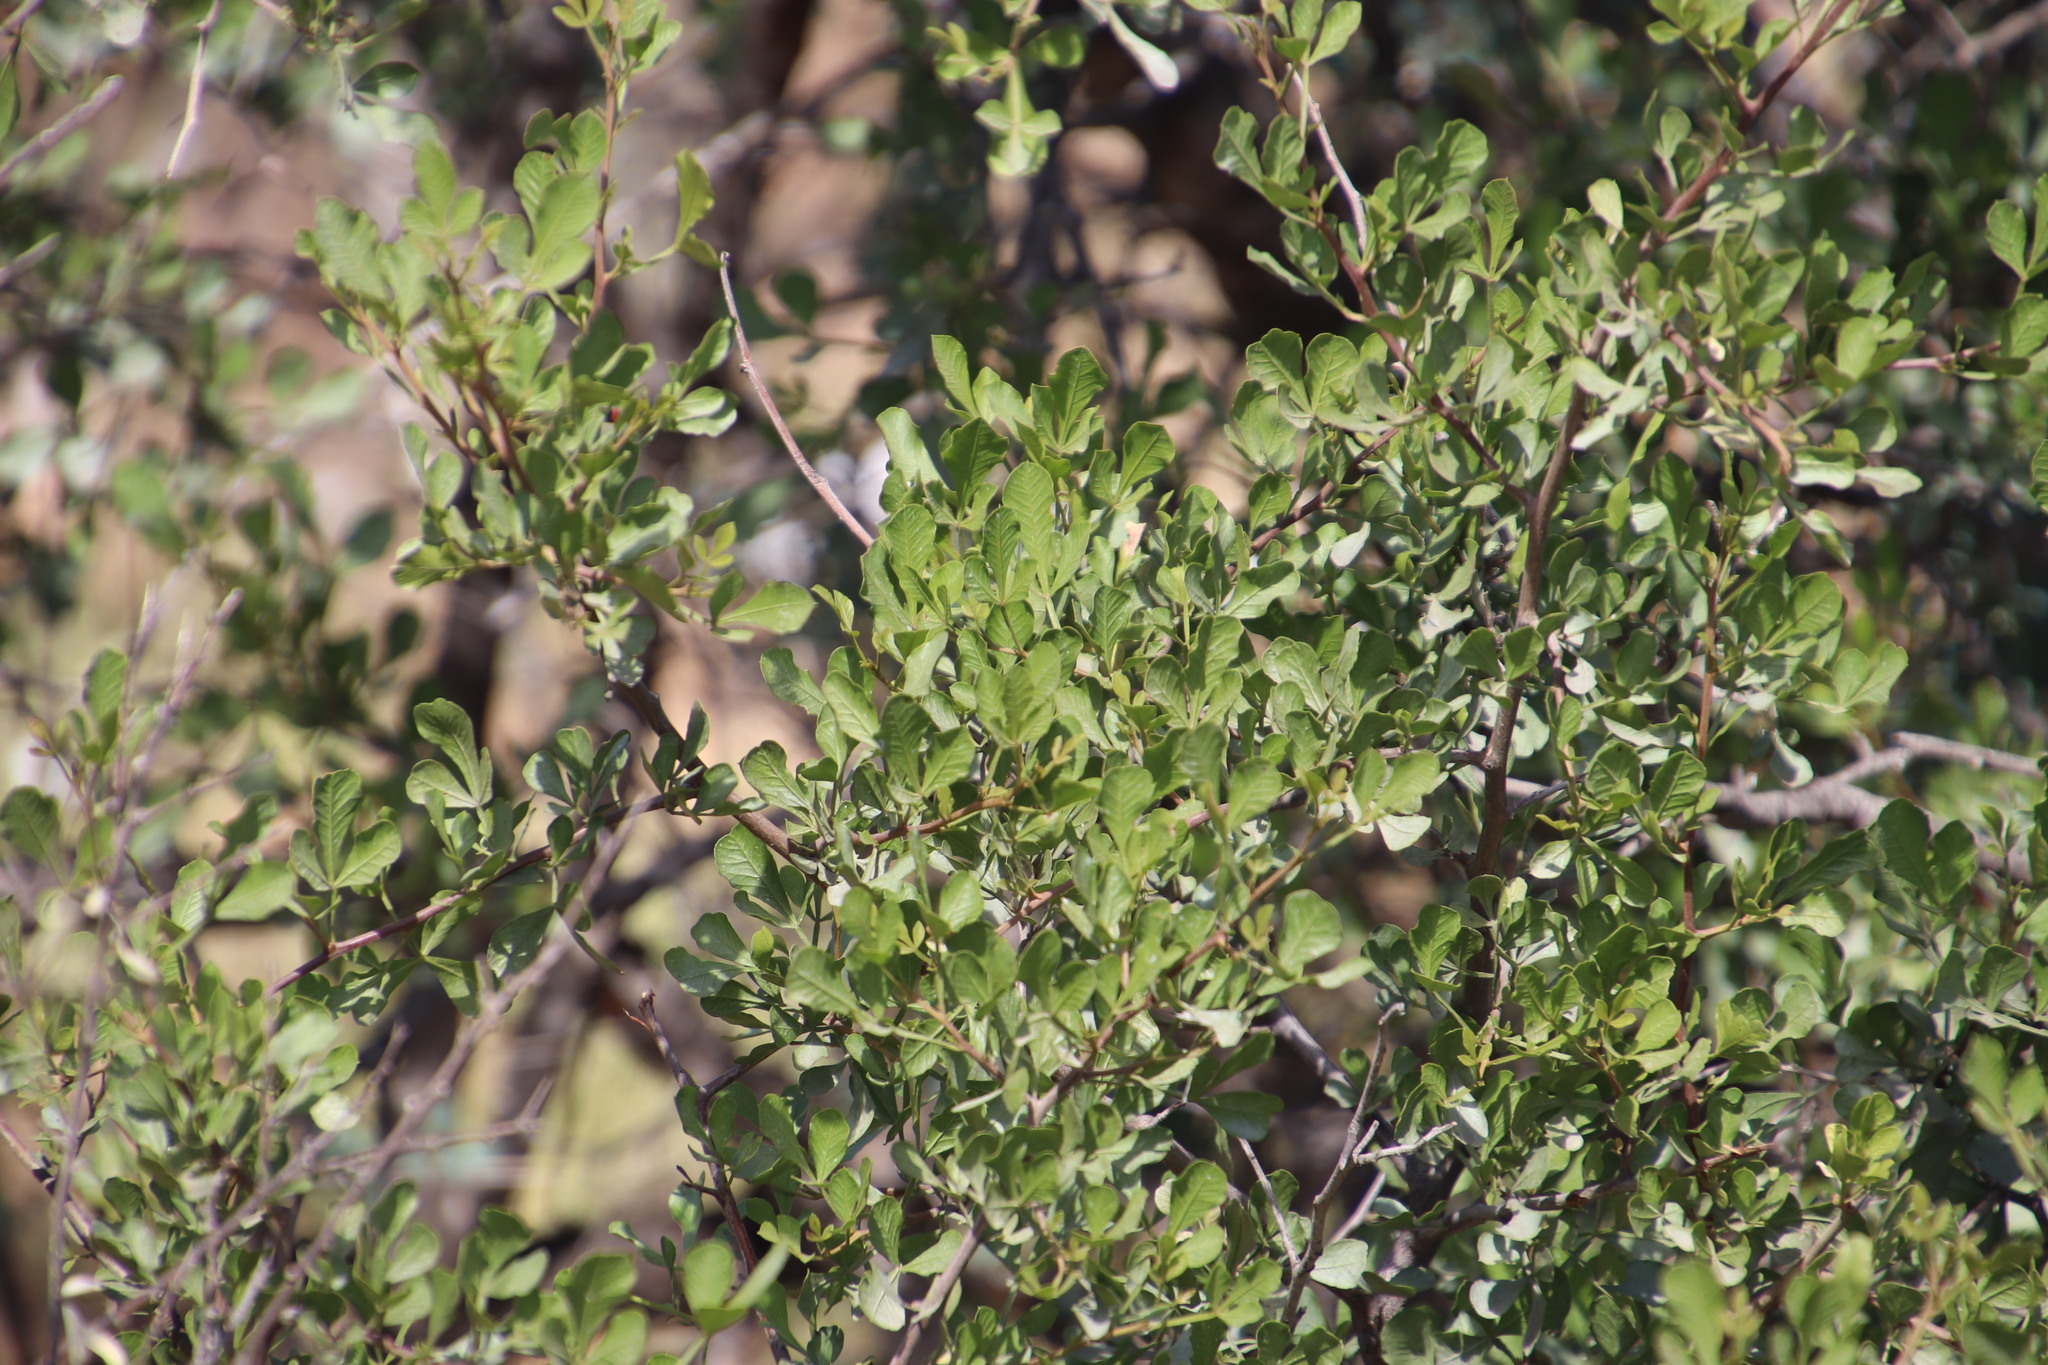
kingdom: Plantae
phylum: Tracheophyta
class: Magnoliopsida
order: Sapindales
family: Anacardiaceae
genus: Searsia
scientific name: Searsia undulata
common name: Namaqua kunibush
